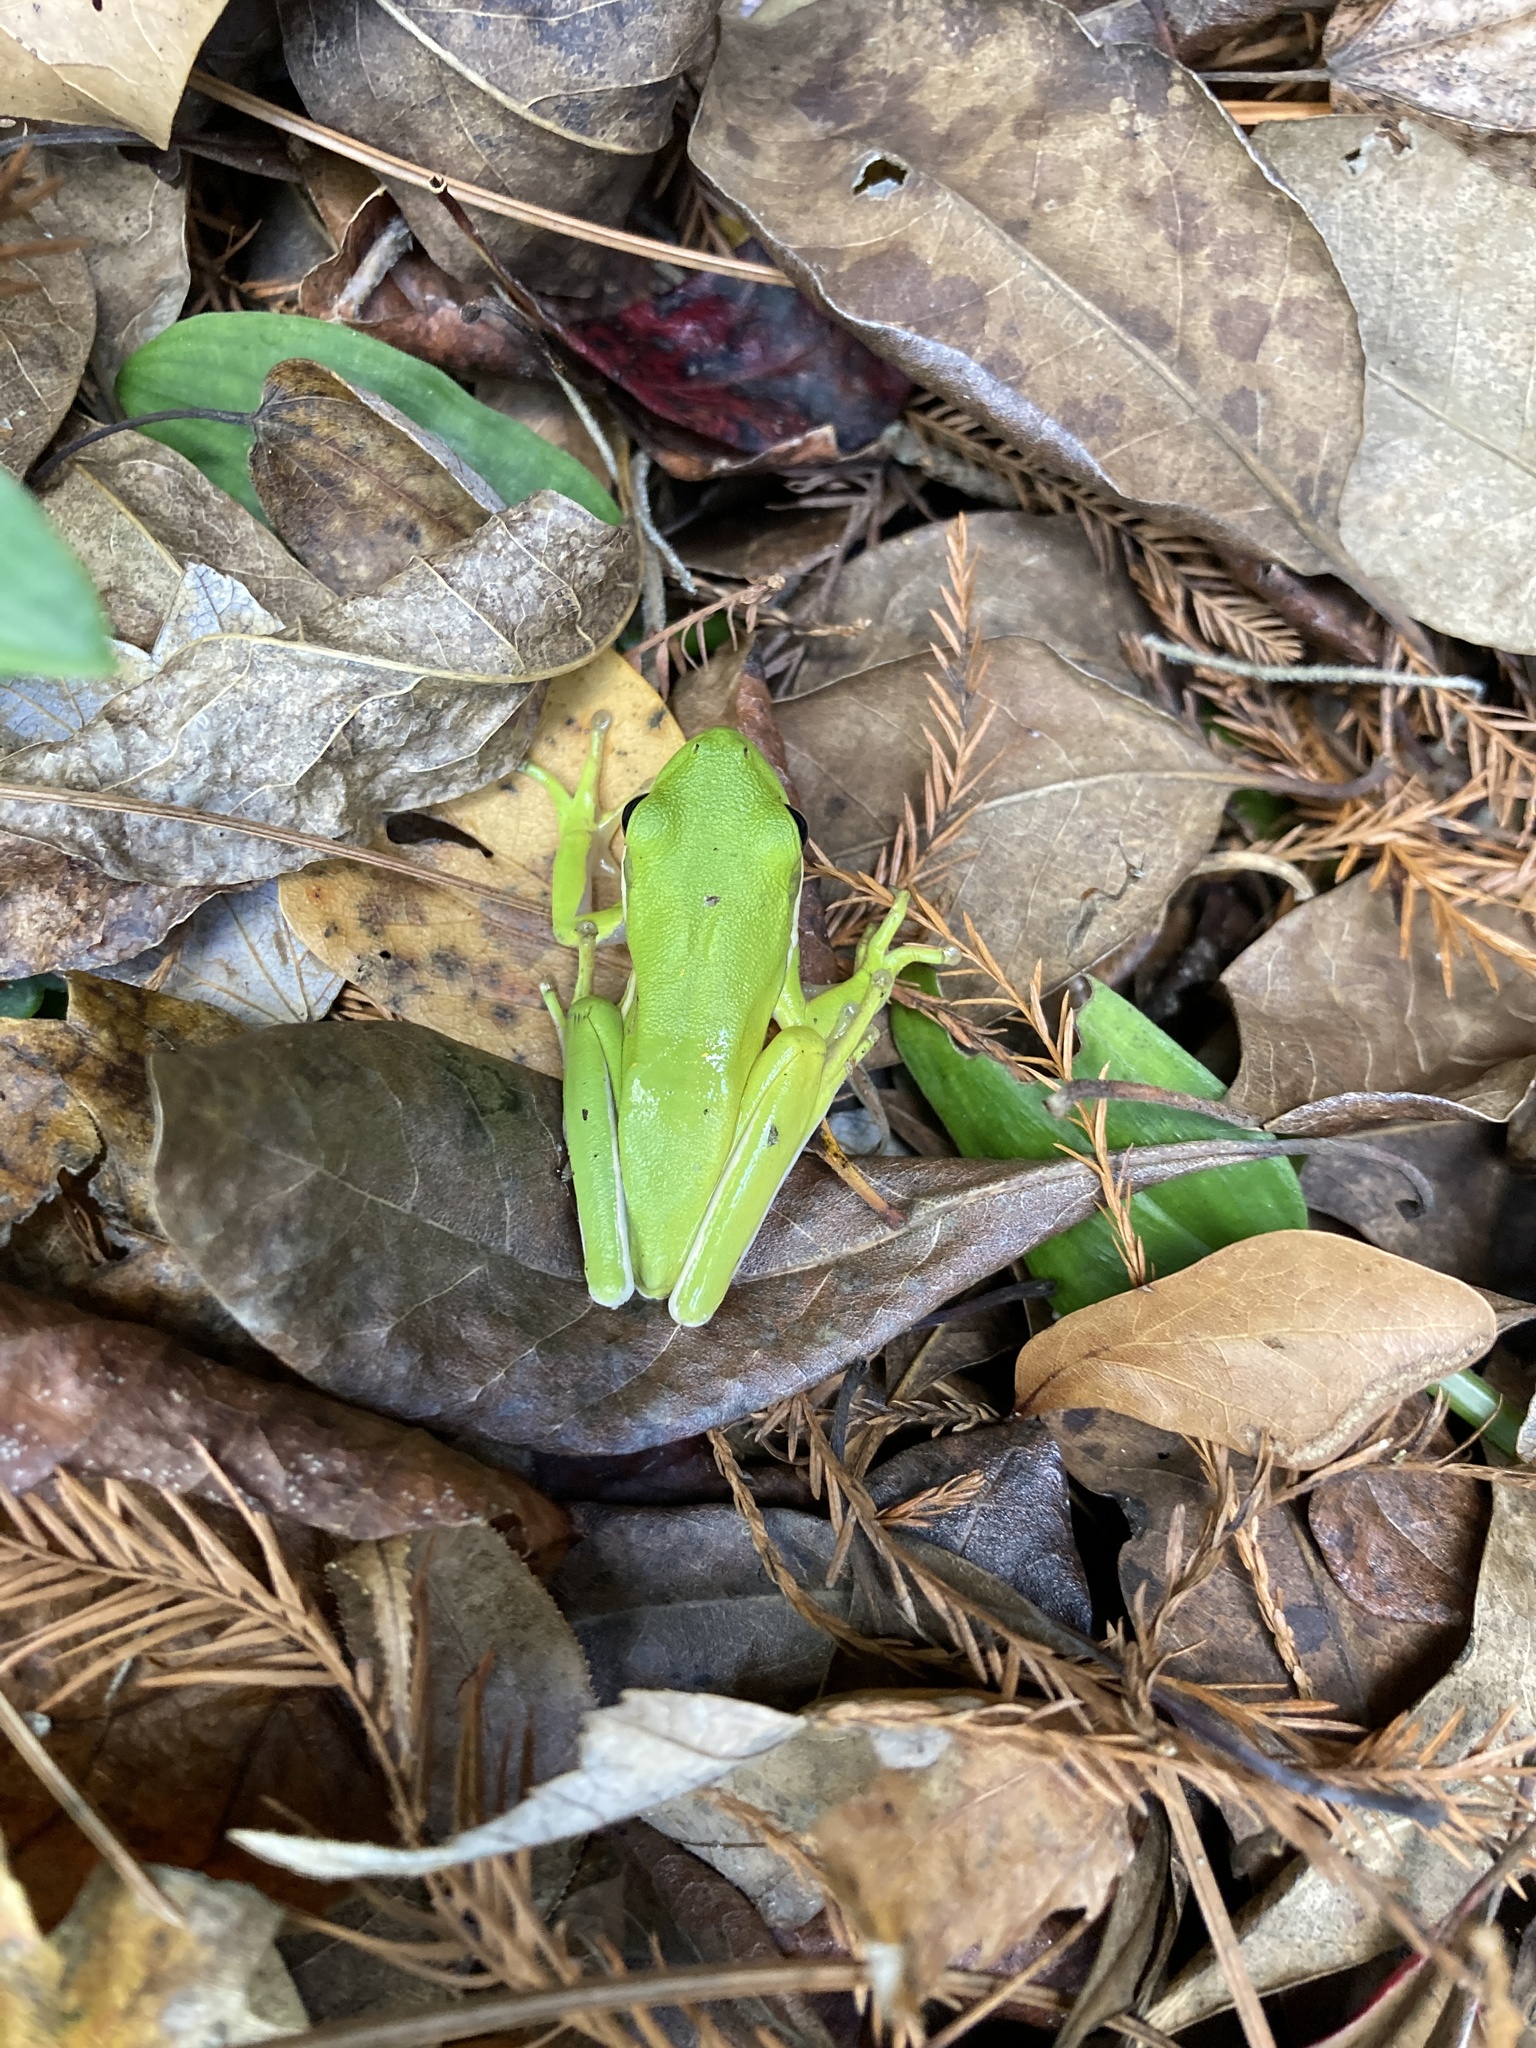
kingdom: Animalia
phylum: Chordata
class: Amphibia
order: Anura
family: Hylidae
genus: Dryophytes
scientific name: Dryophytes cinereus
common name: Green treefrog
